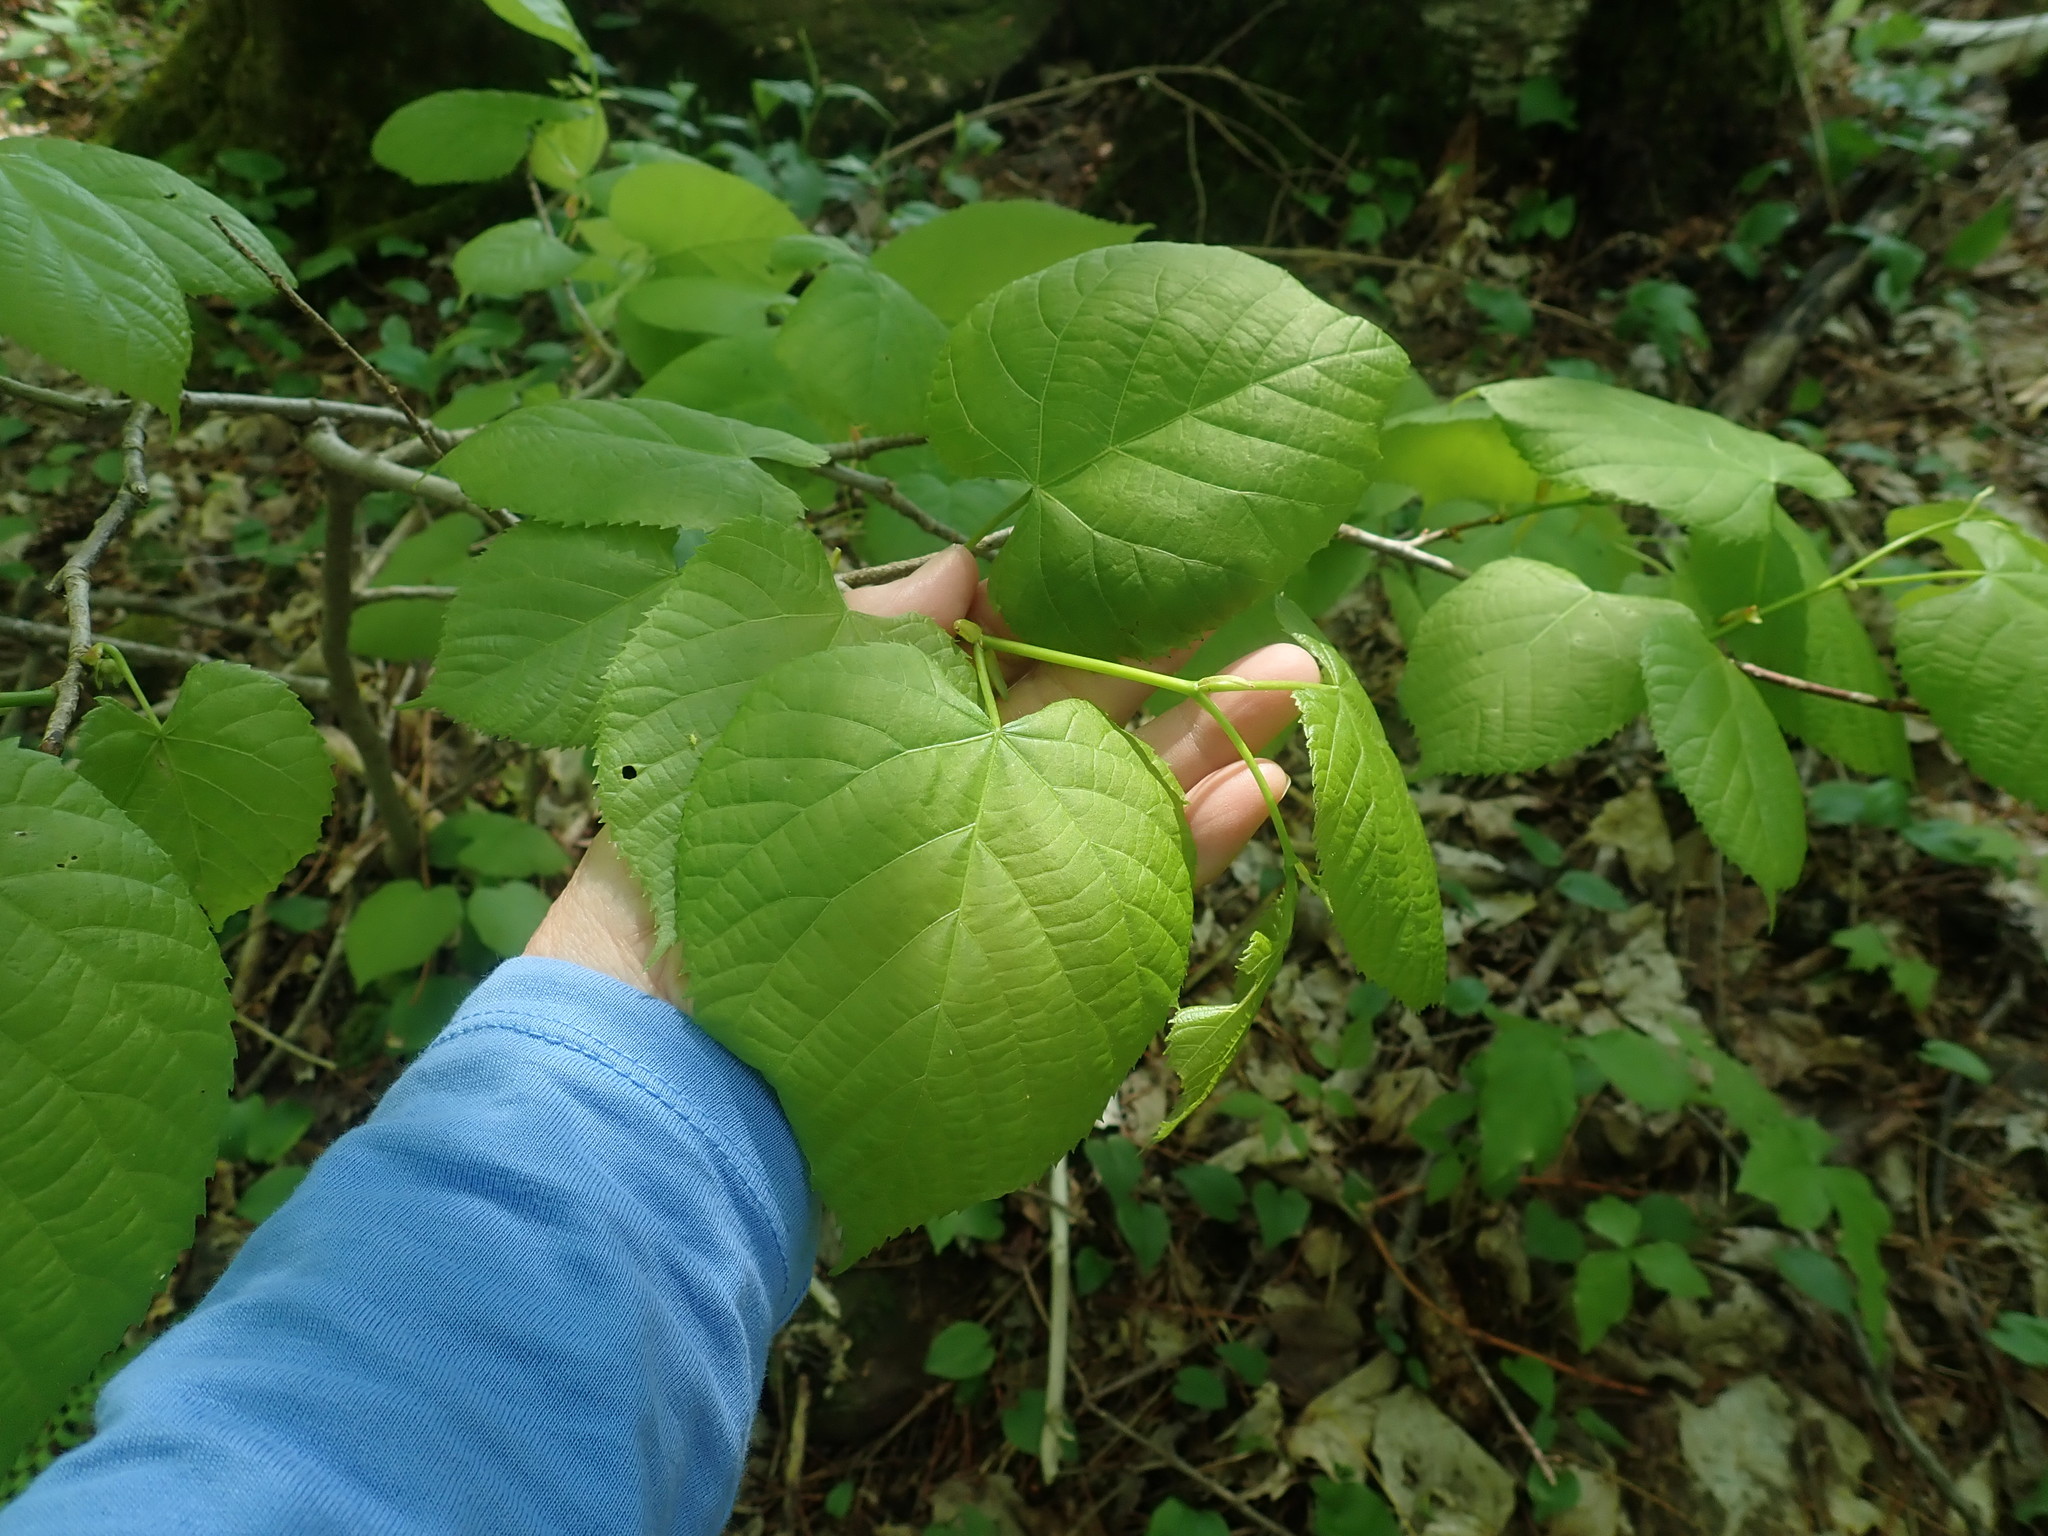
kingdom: Plantae
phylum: Tracheophyta
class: Magnoliopsida
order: Malvales
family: Malvaceae
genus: Tilia
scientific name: Tilia americana
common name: Basswood
